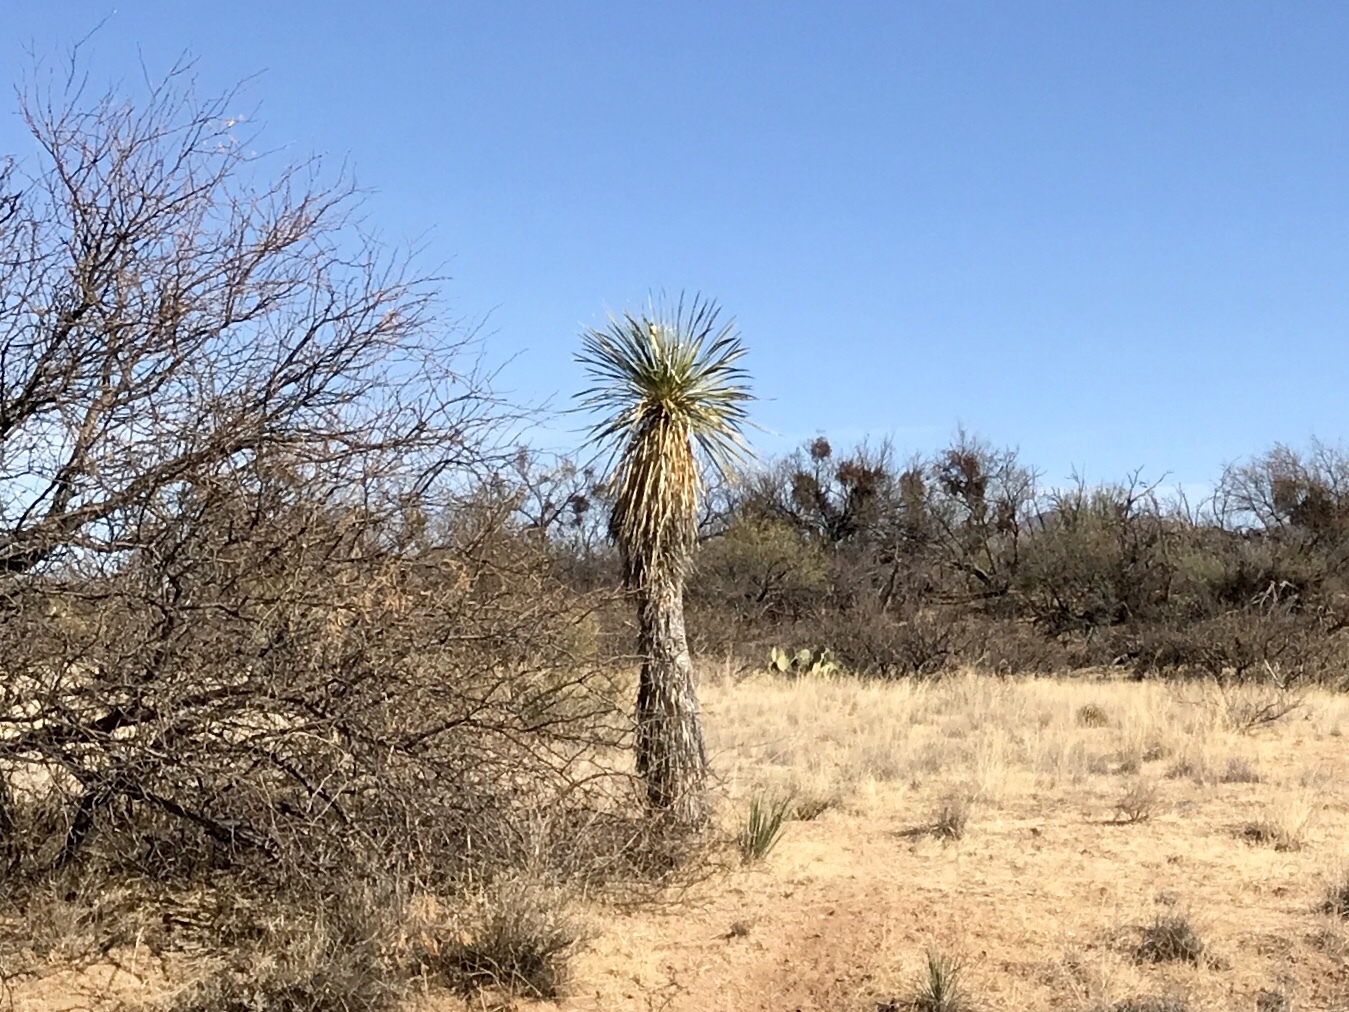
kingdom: Plantae
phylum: Tracheophyta
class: Liliopsida
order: Asparagales
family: Asparagaceae
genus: Yucca
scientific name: Yucca elata
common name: Palmella
